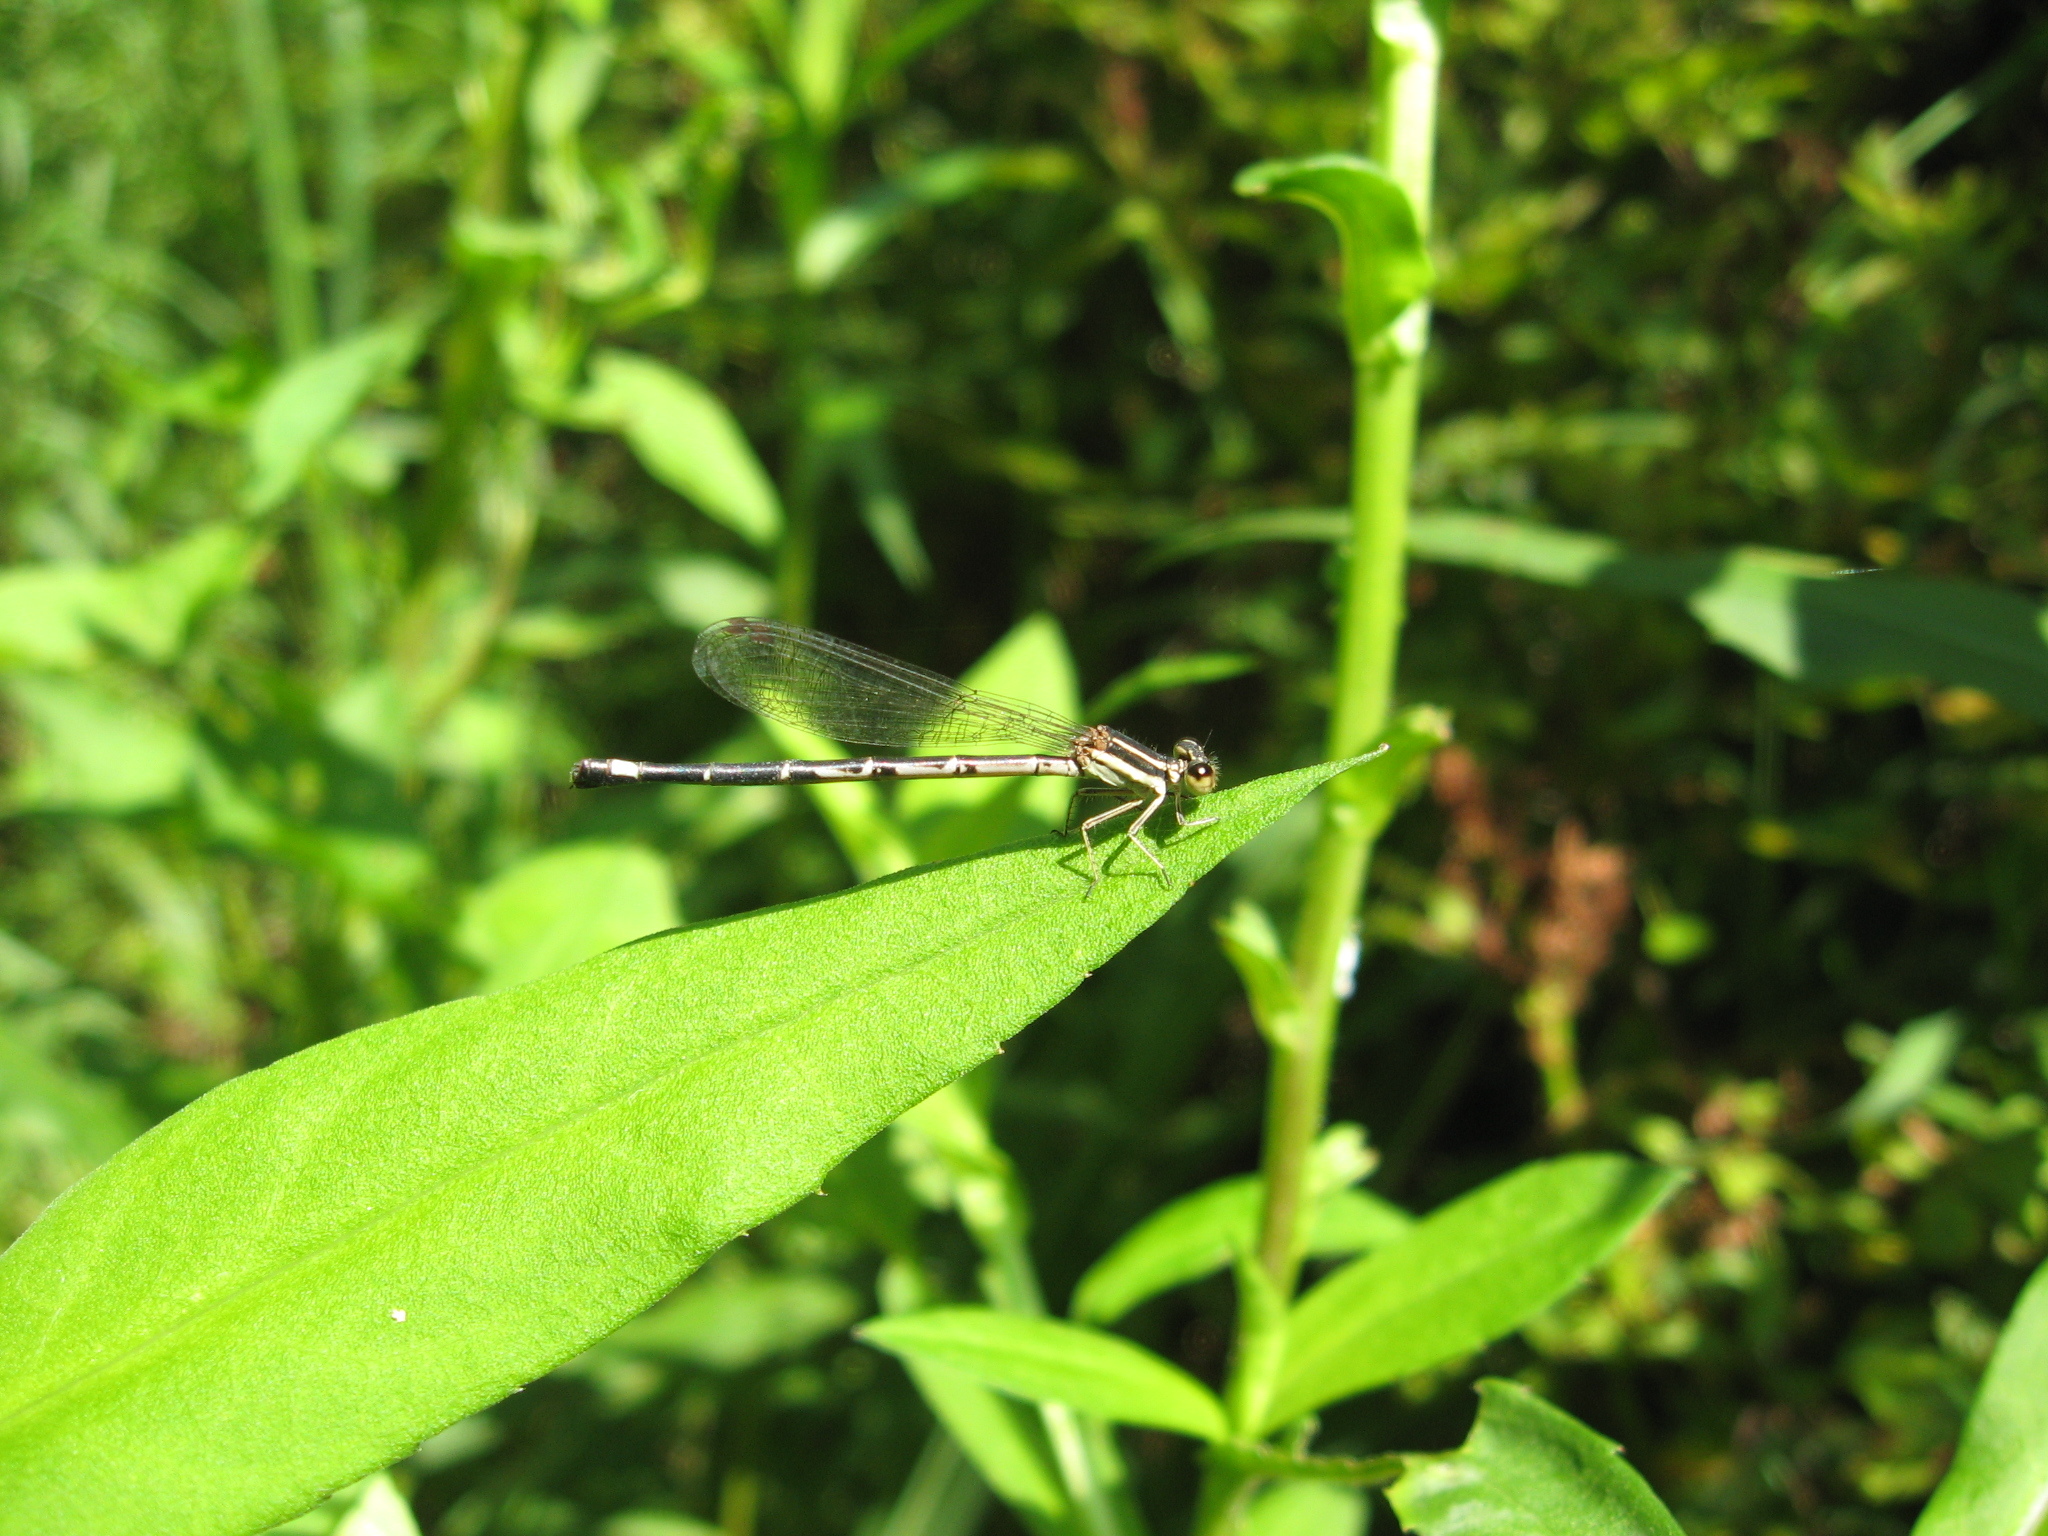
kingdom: Animalia
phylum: Arthropoda
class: Insecta
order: Odonata
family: Coenagrionidae
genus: Argia
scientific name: Argia bipunctulata
